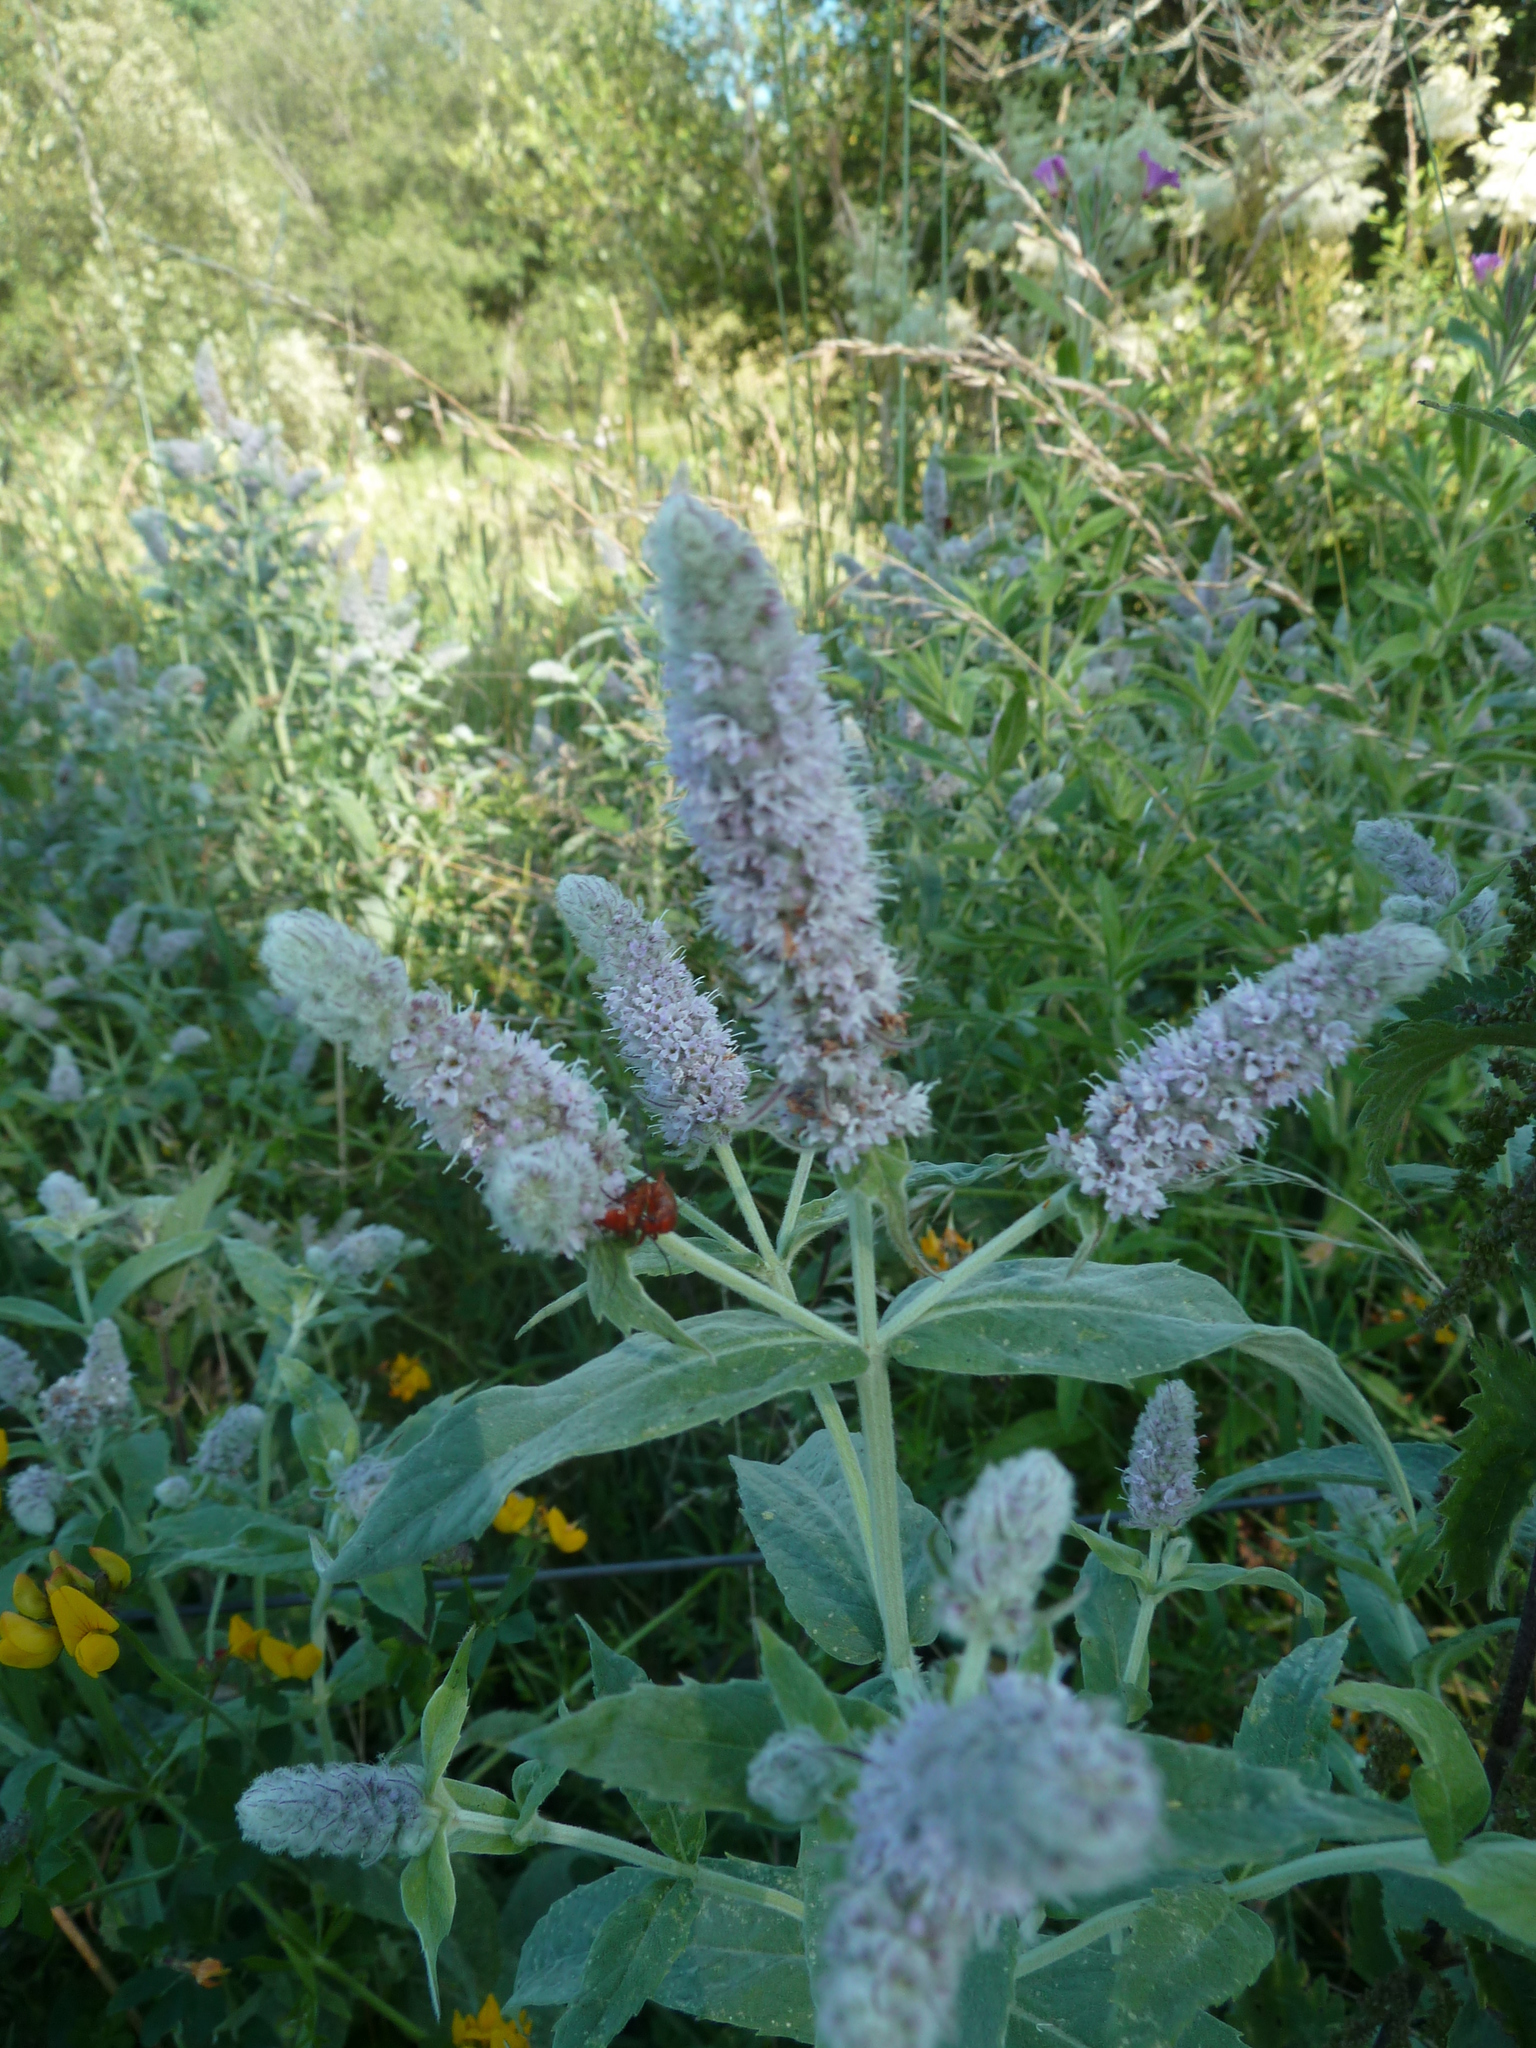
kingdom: Plantae
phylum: Tracheophyta
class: Magnoliopsida
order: Lamiales
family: Lamiaceae
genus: Mentha
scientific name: Mentha longifolia
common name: Horse mint
